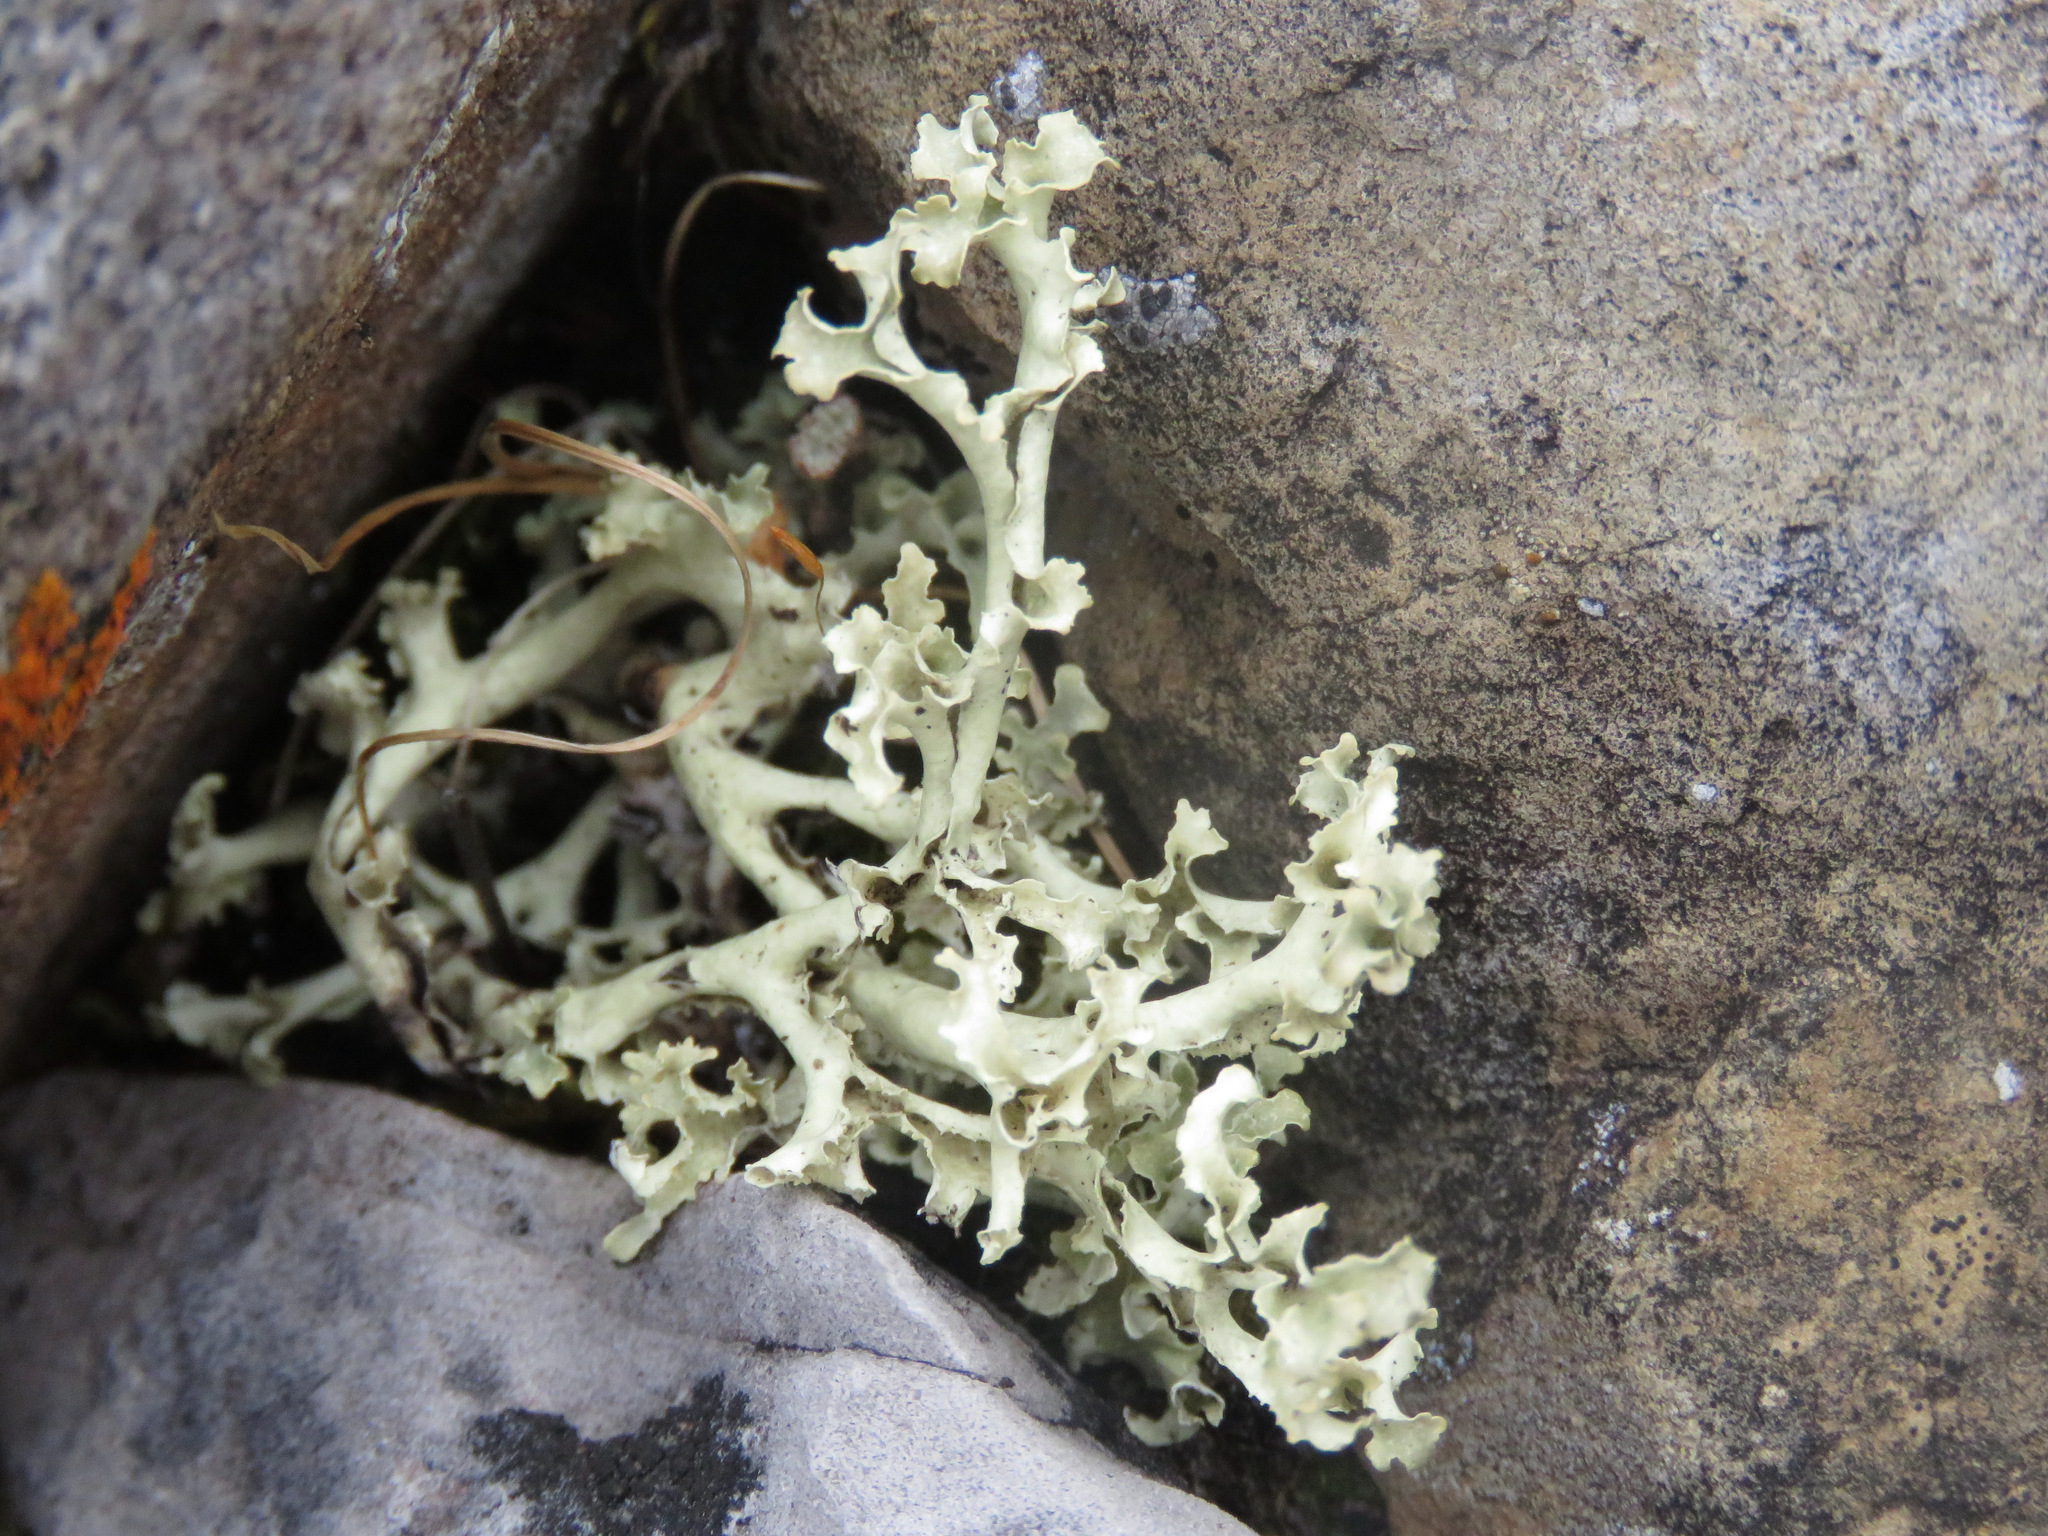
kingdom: Fungi
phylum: Ascomycota
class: Lecanoromycetes
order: Lecanorales
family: Parmeliaceae
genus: Nephromopsis
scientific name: Nephromopsis cucullata
